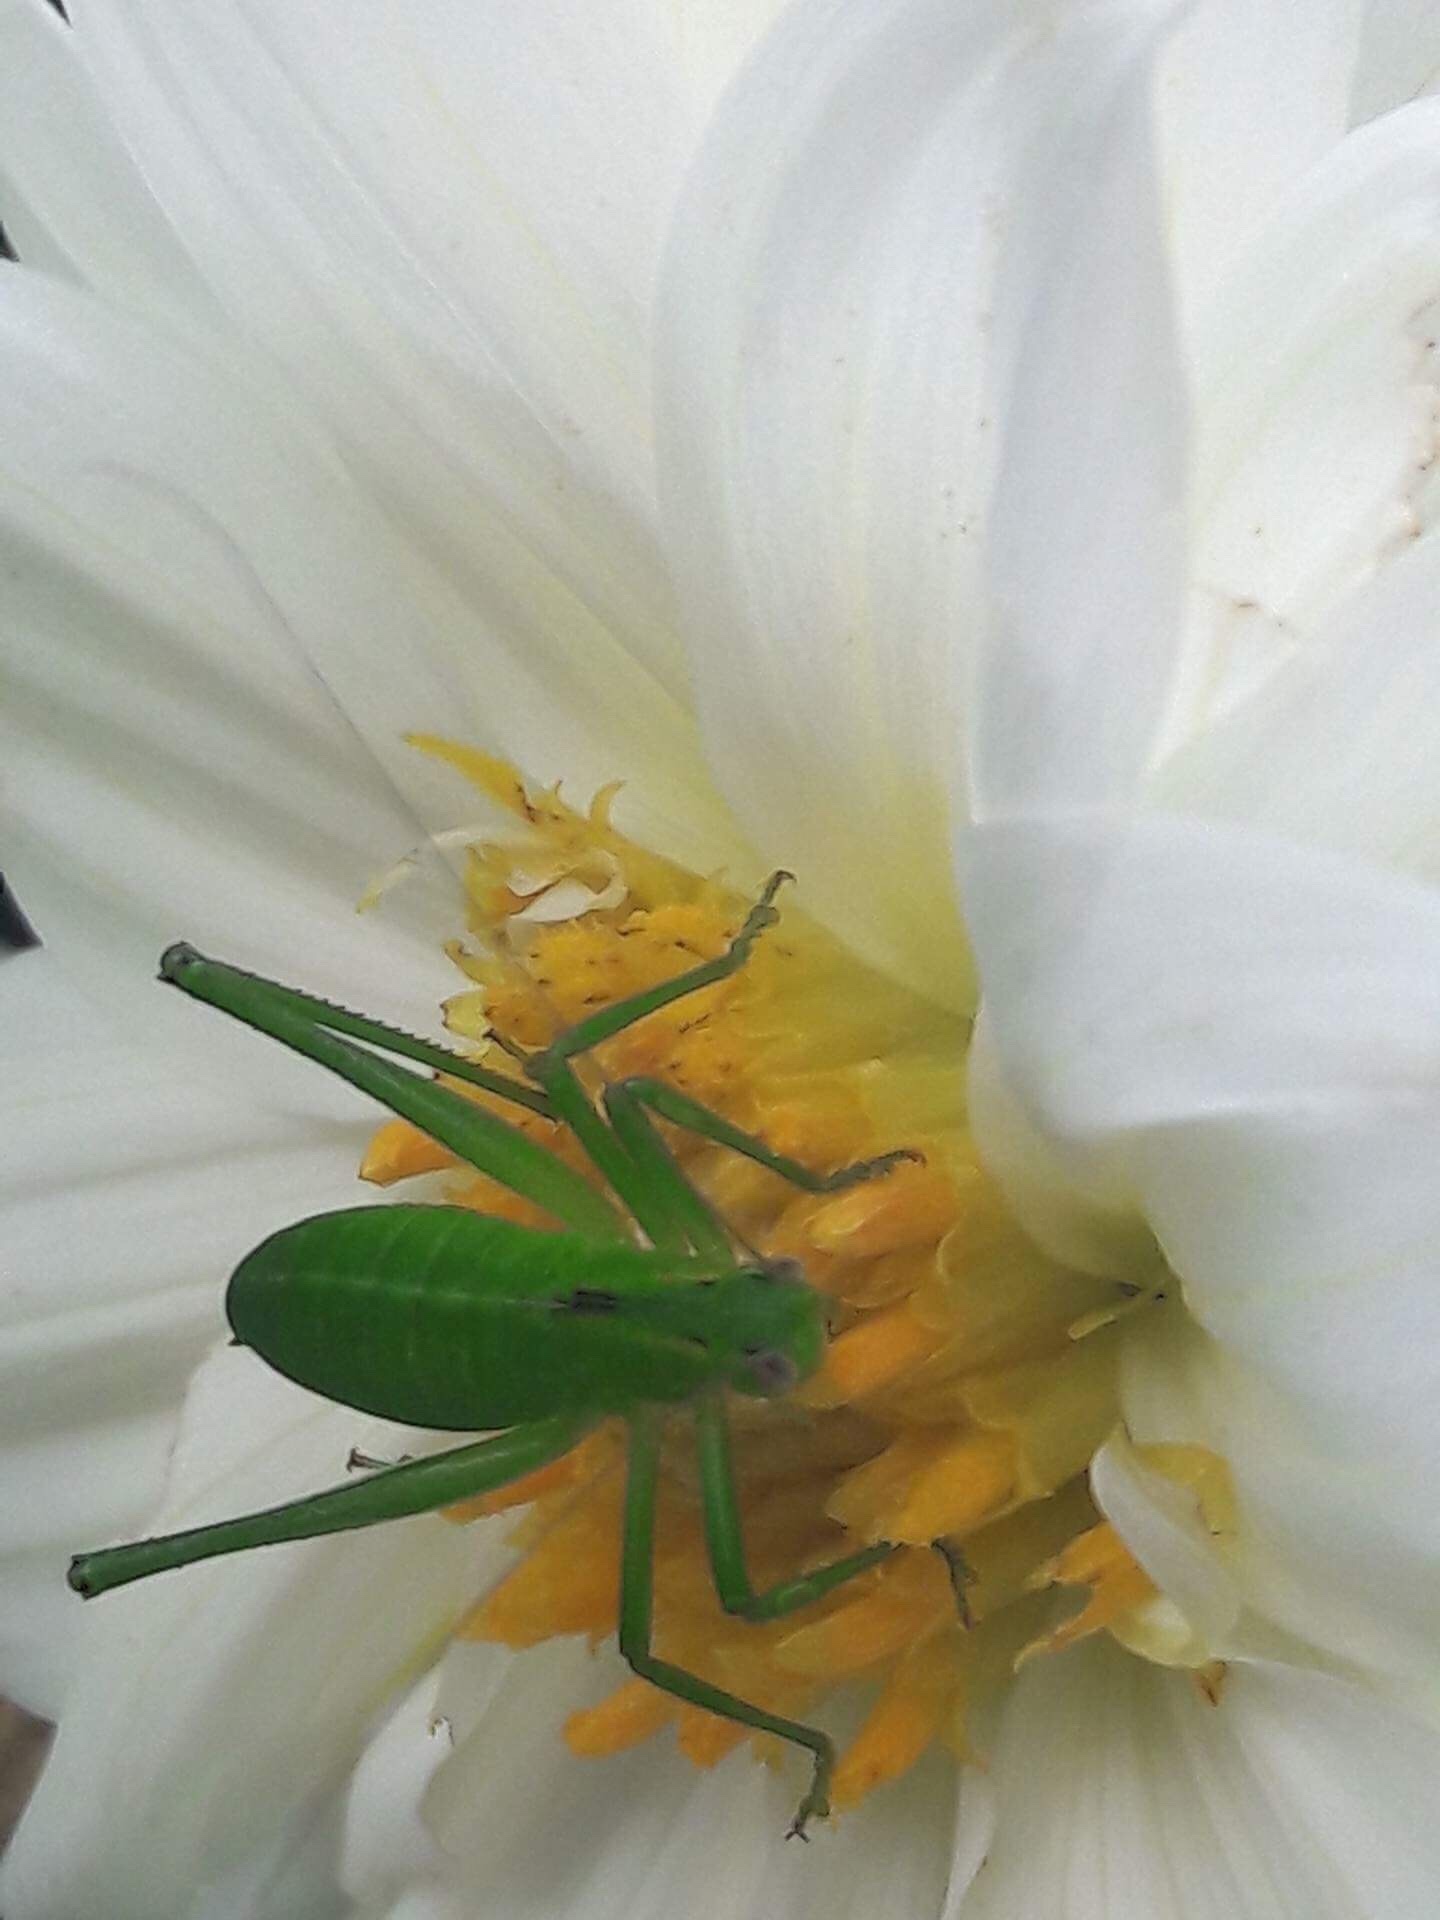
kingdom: Animalia
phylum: Arthropoda
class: Insecta
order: Orthoptera
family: Tettigoniidae
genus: Caedicia
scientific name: Caedicia simplex
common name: Common garden katydid
